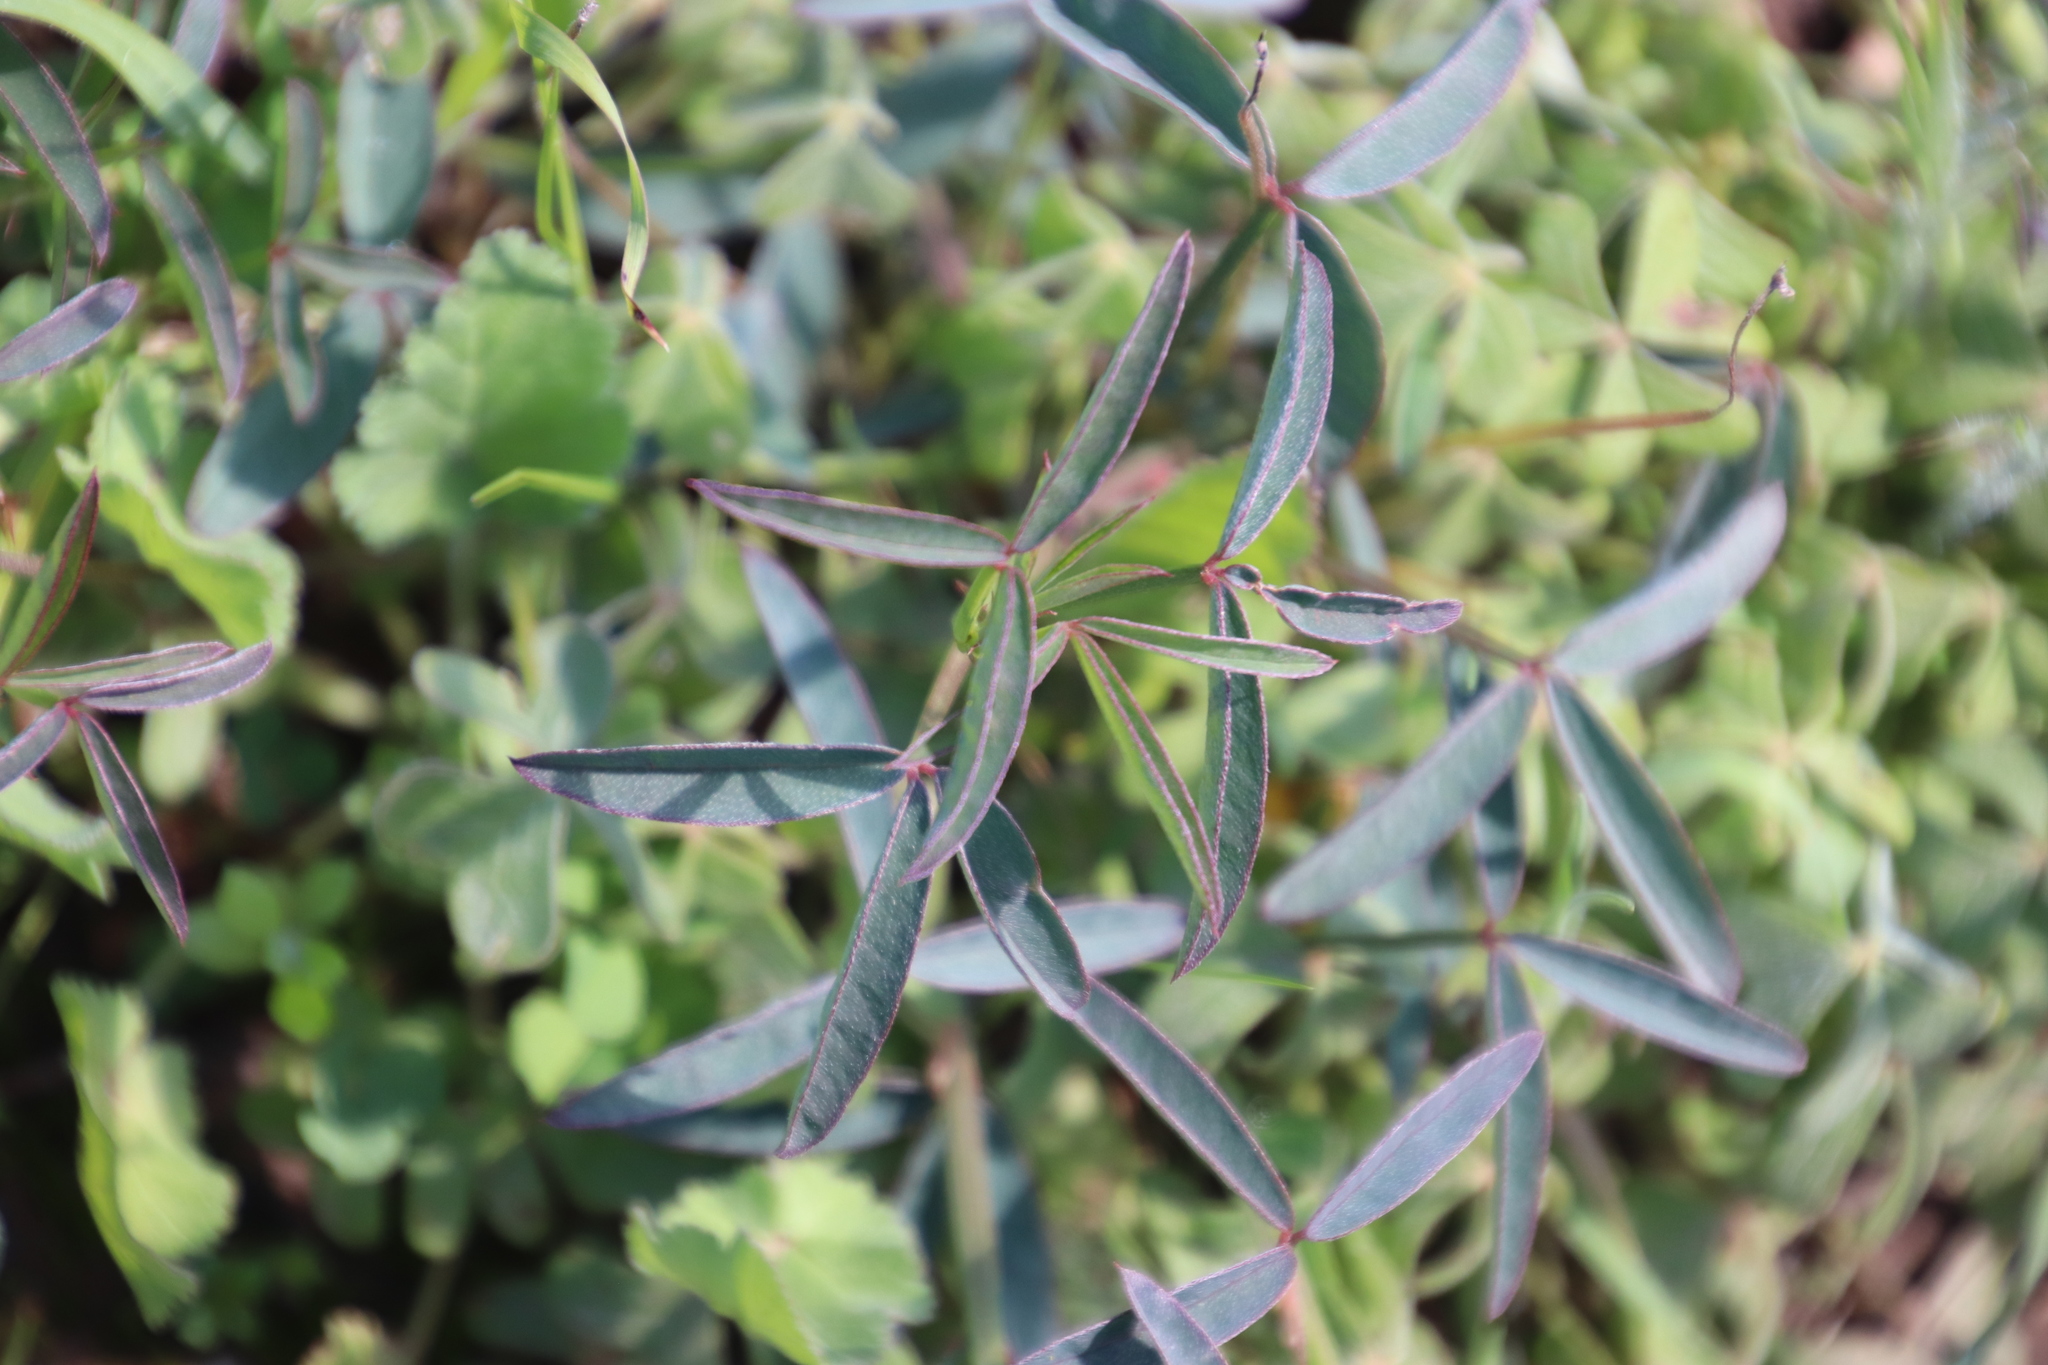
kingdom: Plantae
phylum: Tracheophyta
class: Magnoliopsida
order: Fabales
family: Fabaceae
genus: Indigofera
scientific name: Indigofera psoraloides
